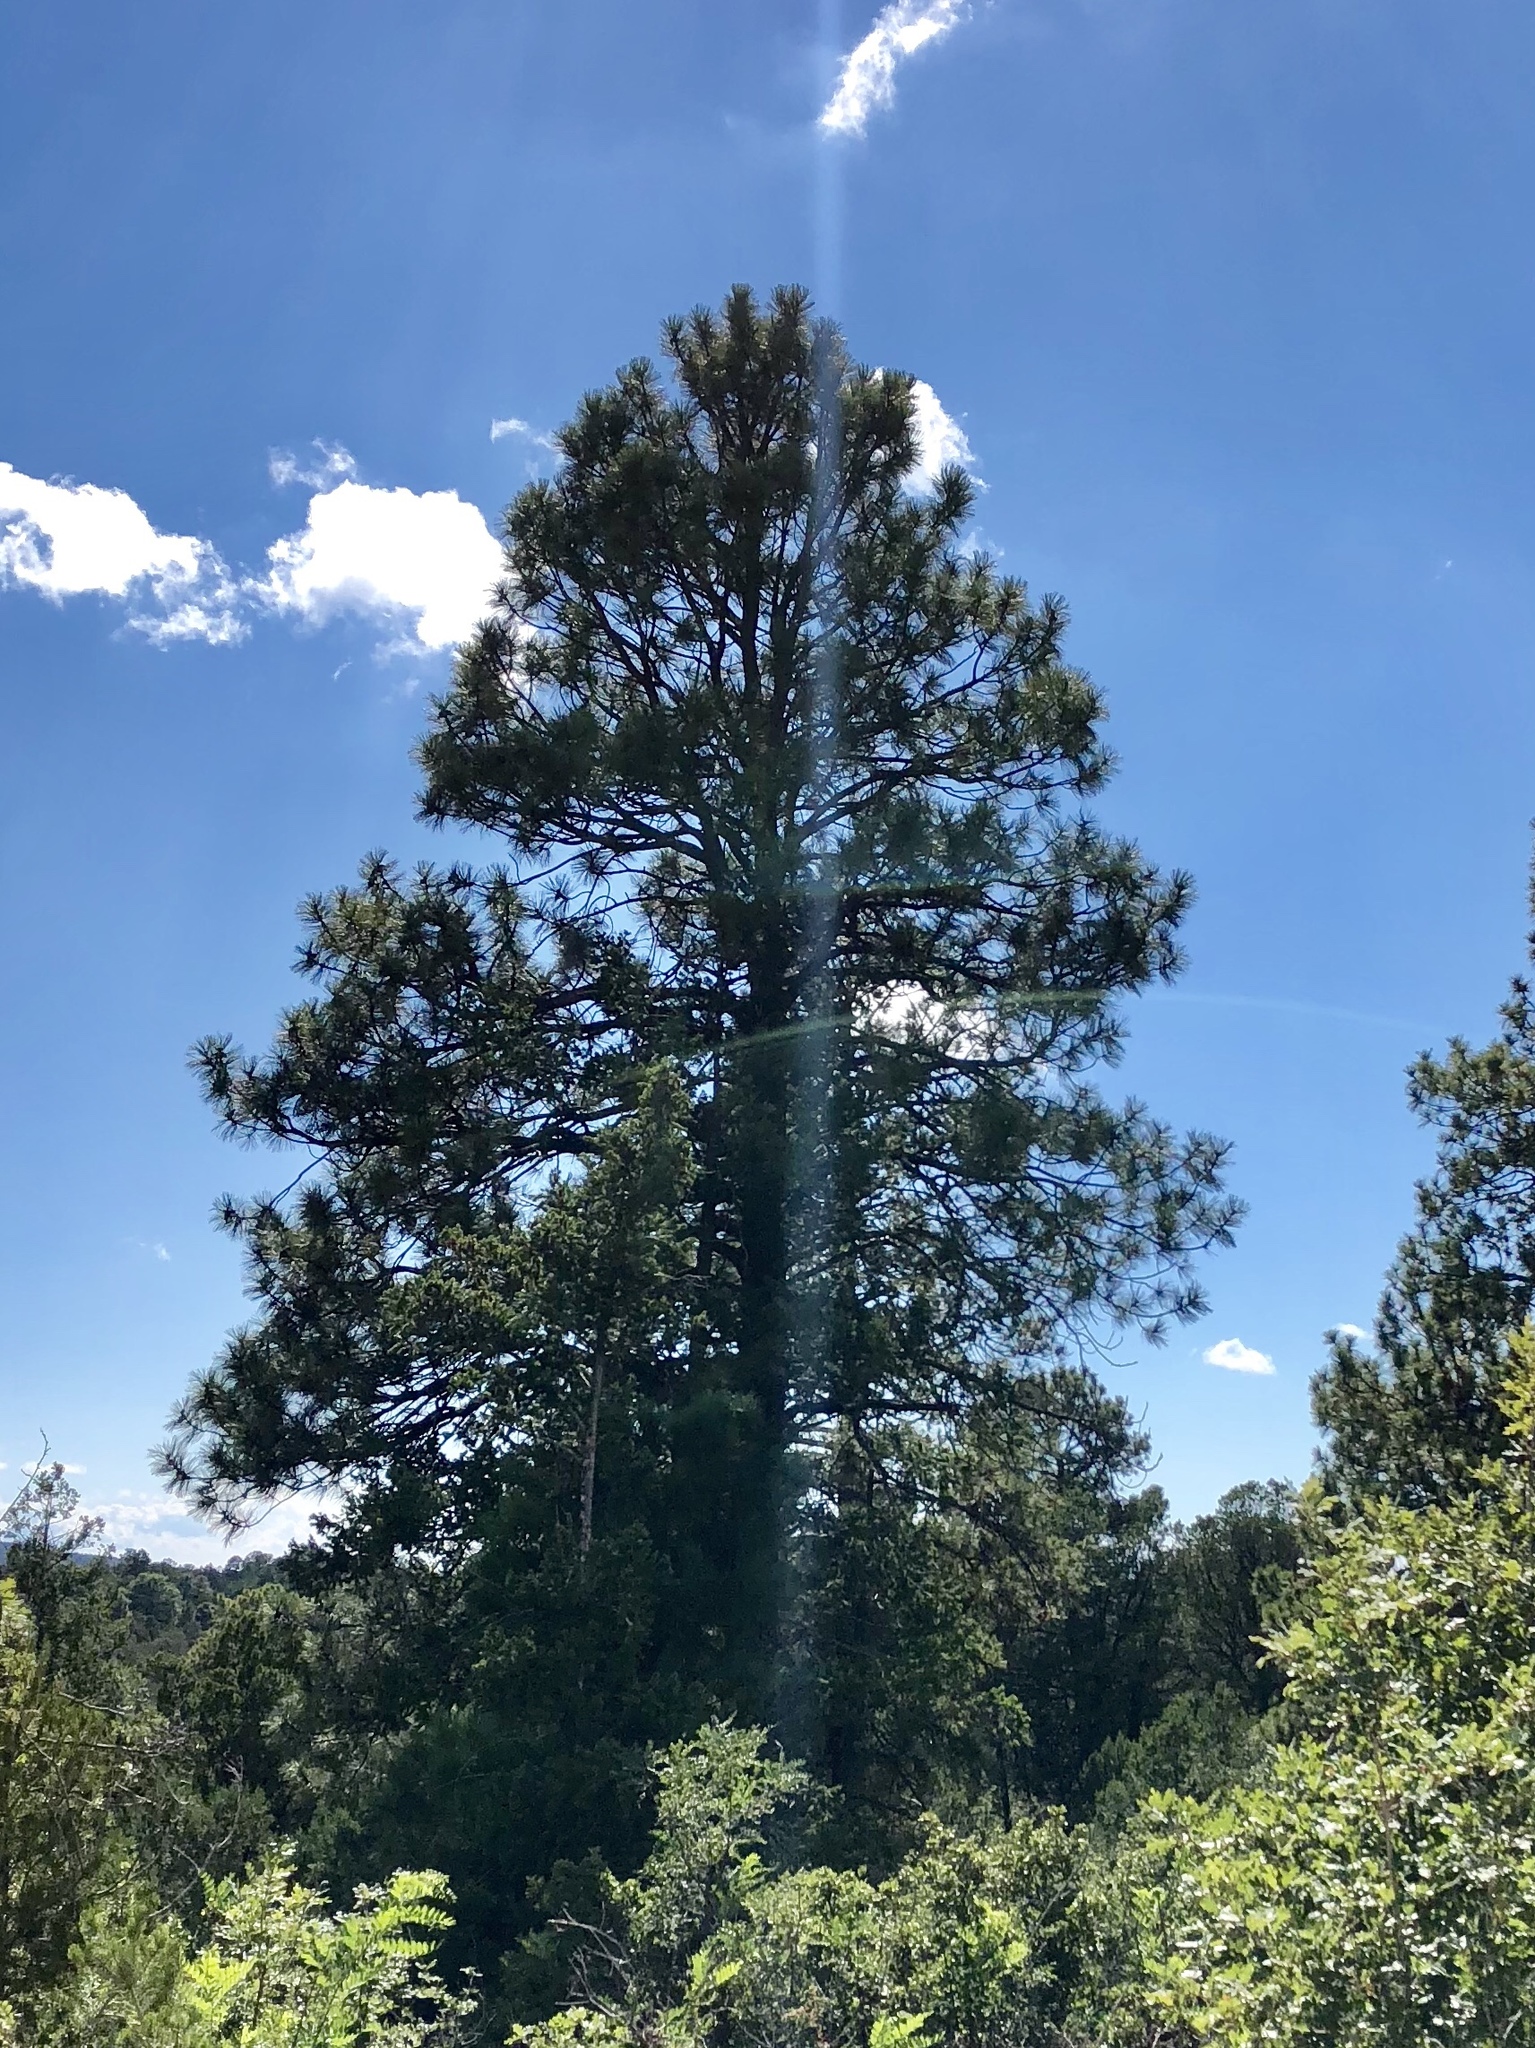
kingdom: Plantae
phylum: Tracheophyta
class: Pinopsida
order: Pinales
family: Pinaceae
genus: Pinus
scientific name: Pinus ponderosa
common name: Western yellow-pine
